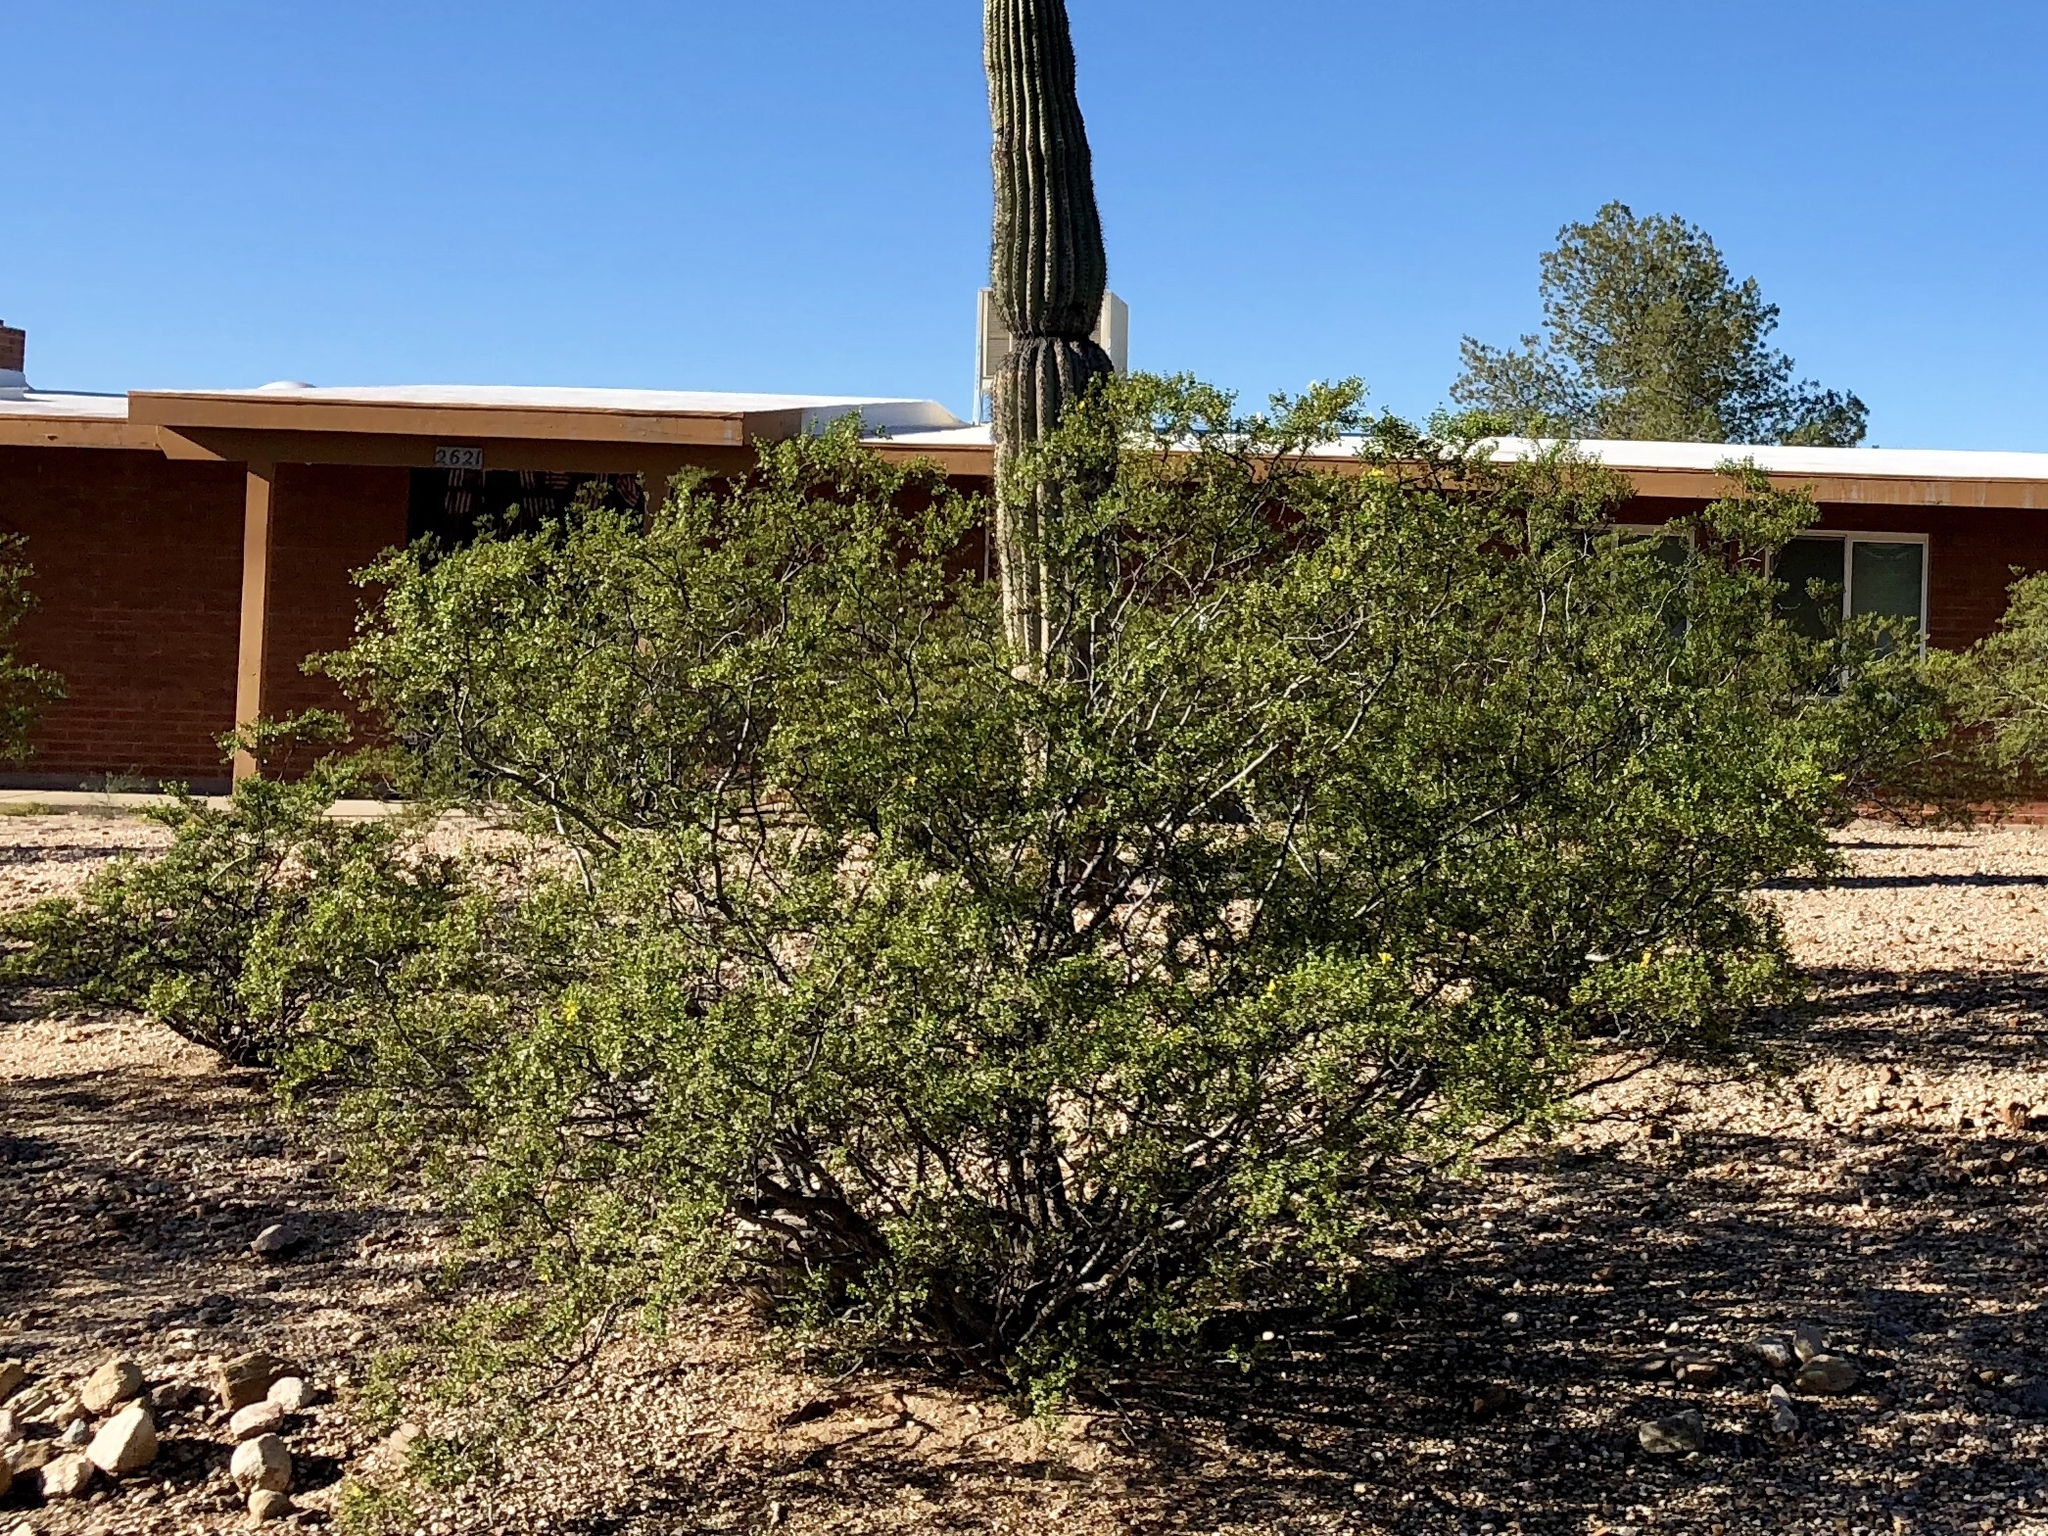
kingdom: Plantae
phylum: Tracheophyta
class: Magnoliopsida
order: Zygophyllales
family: Zygophyllaceae
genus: Larrea
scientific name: Larrea tridentata
